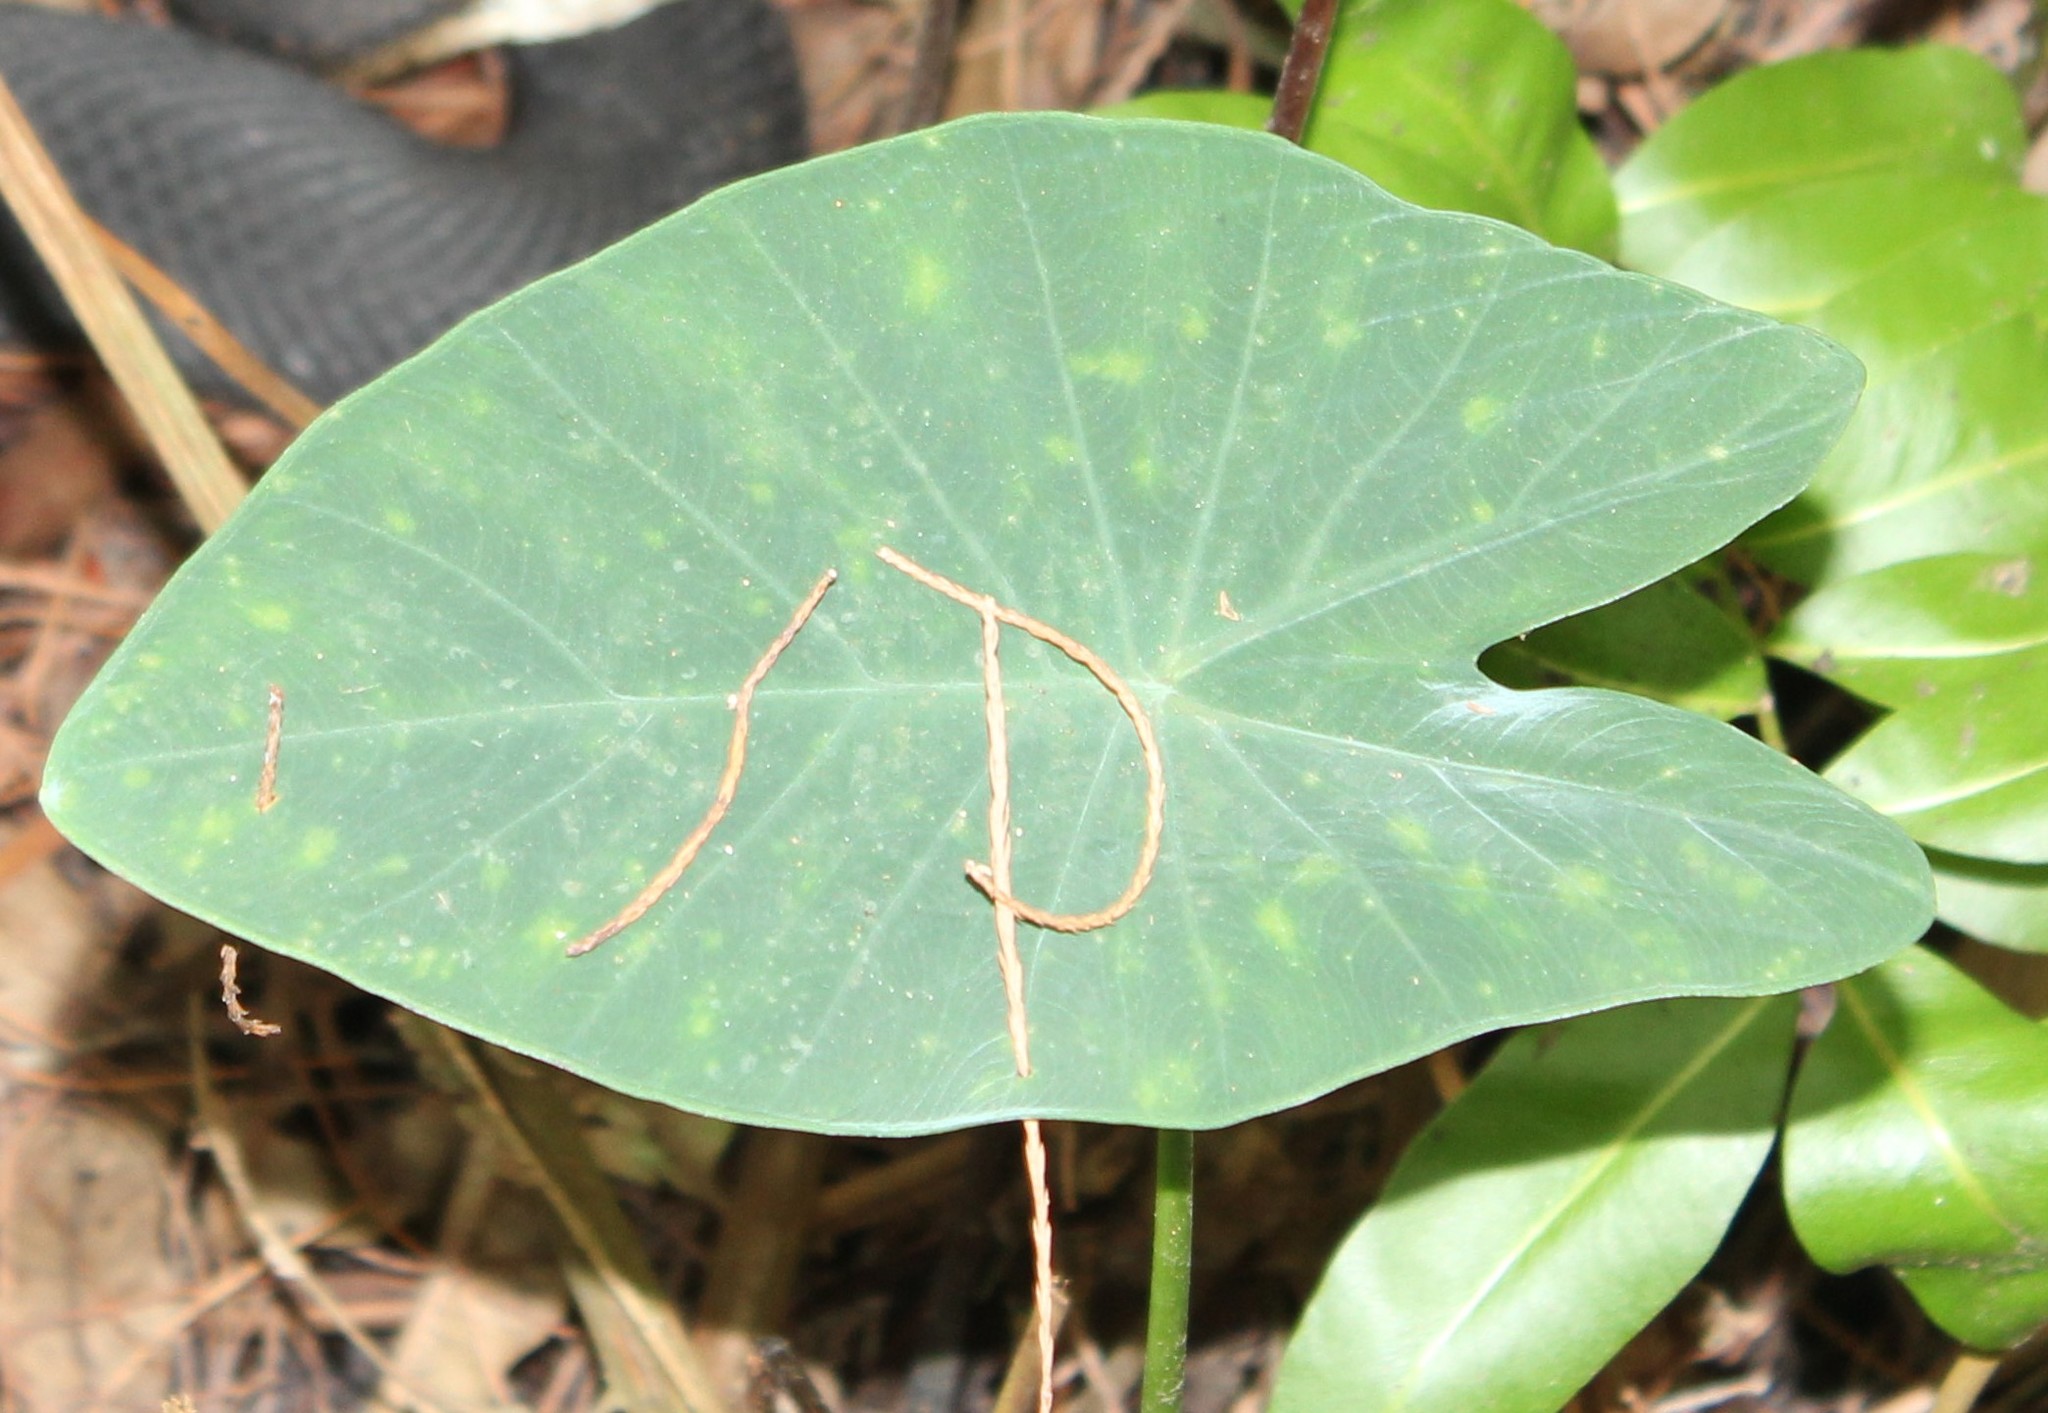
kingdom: Plantae
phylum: Tracheophyta
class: Liliopsida
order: Alismatales
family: Araceae
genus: Colocasia
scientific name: Colocasia esculenta
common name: Taro
